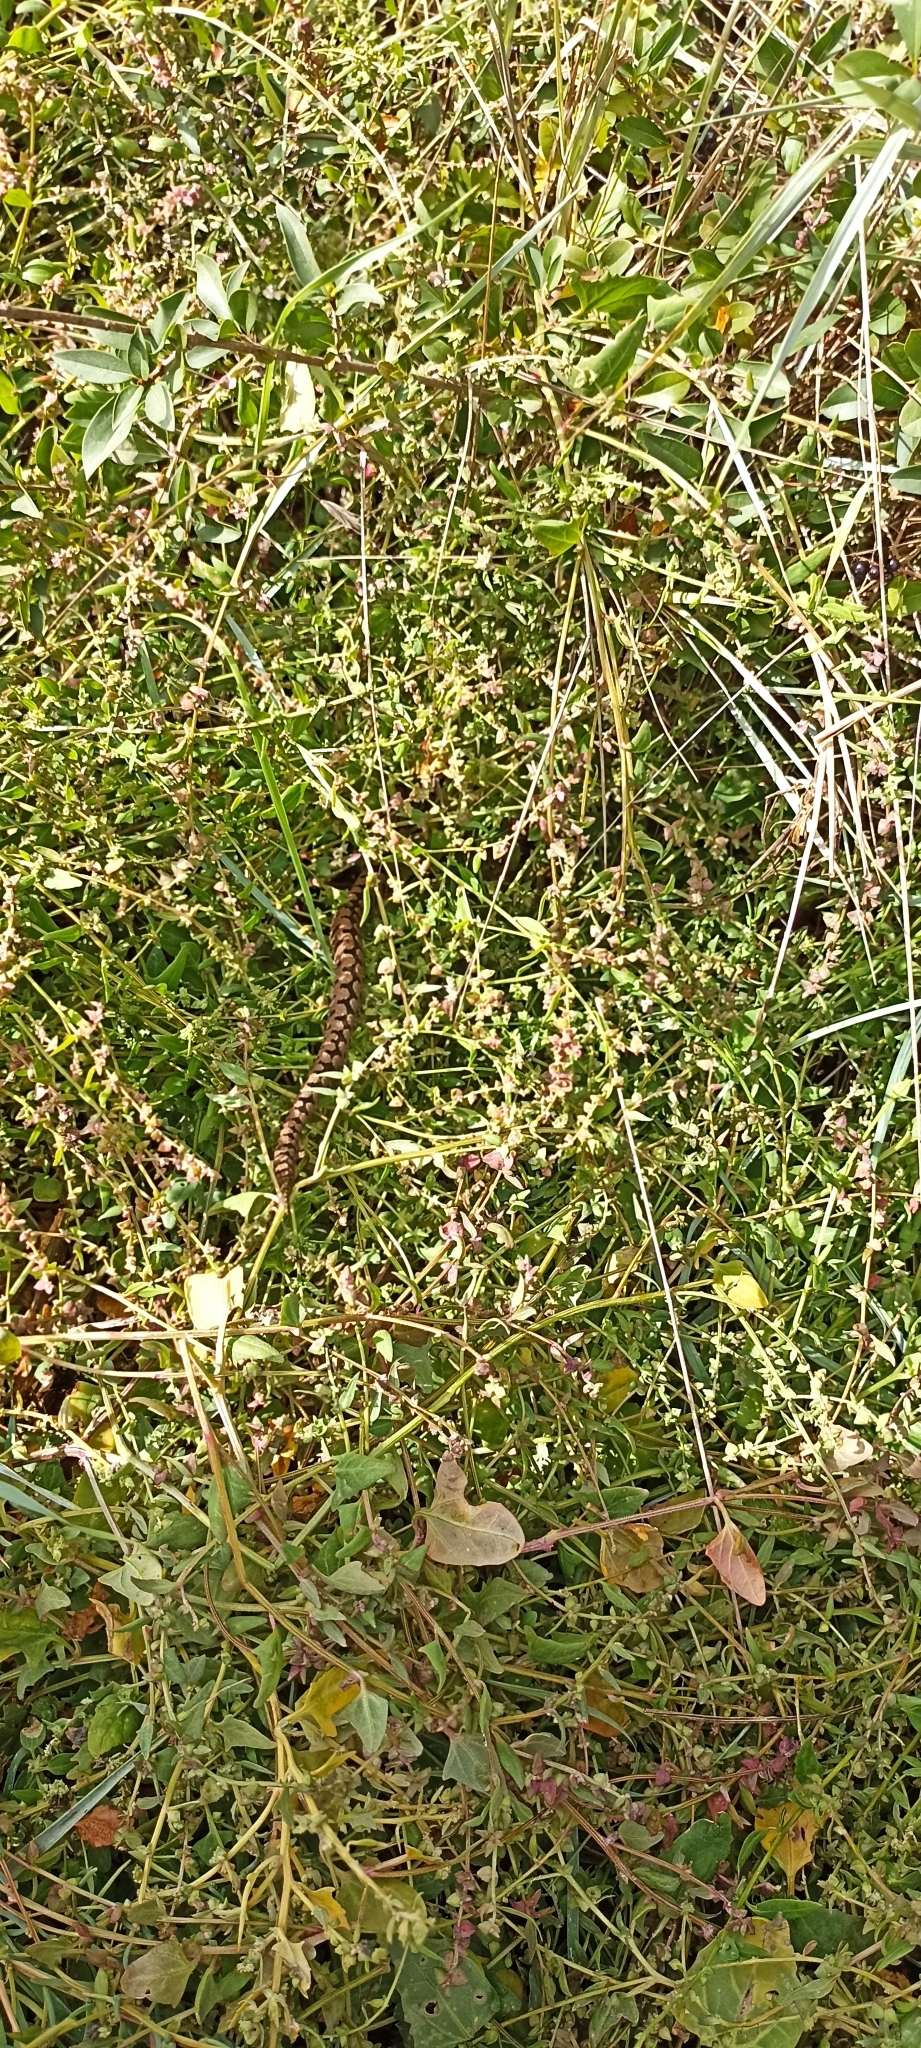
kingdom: Animalia
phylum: Chordata
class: Squamata
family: Viperidae
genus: Vipera
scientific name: Vipera aspis
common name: Asp viper
